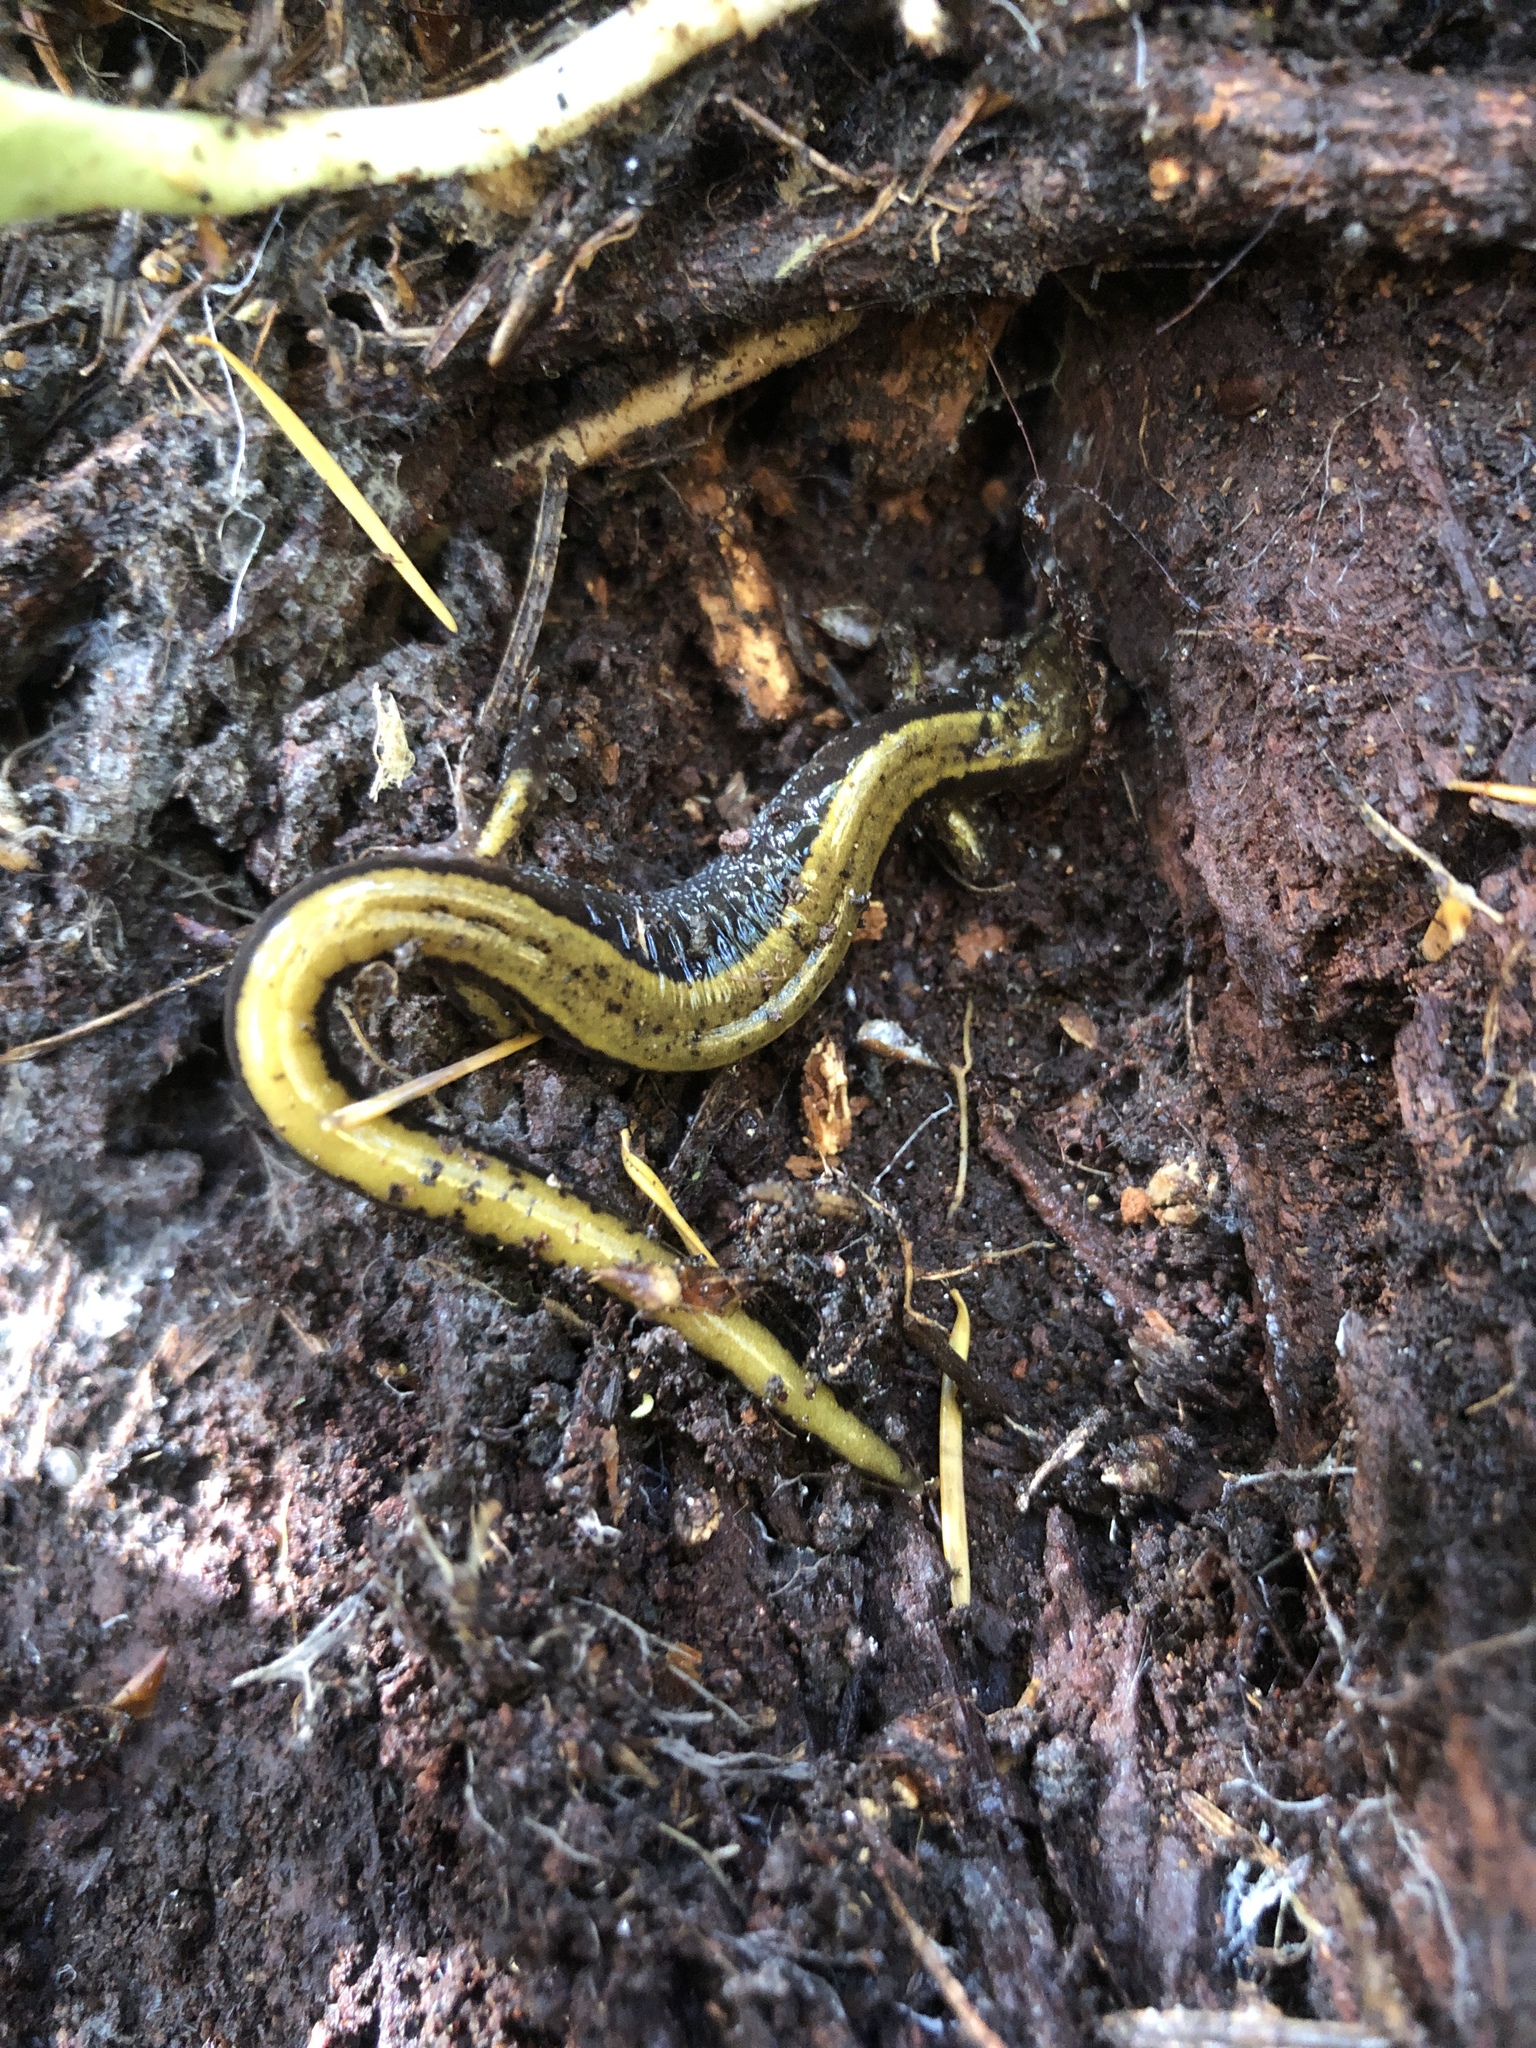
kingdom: Animalia
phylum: Chordata
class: Amphibia
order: Caudata
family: Plethodontidae
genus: Plethodon
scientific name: Plethodon vehiculum
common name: Western red-backed salamander
